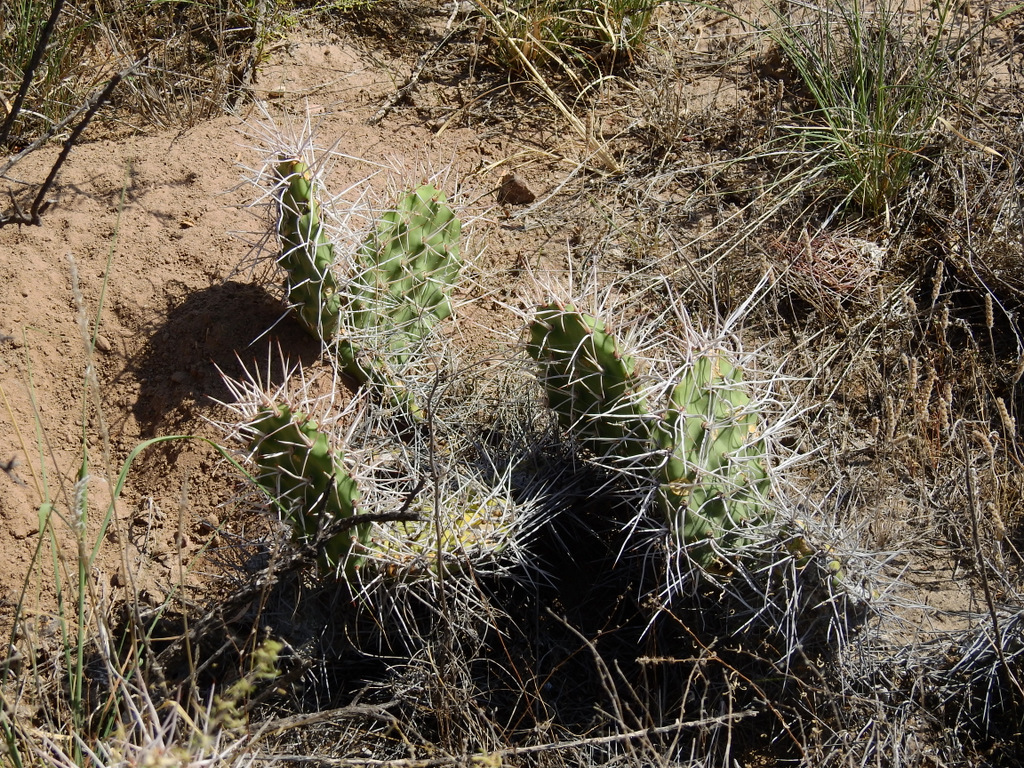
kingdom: Plantae
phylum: Tracheophyta
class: Magnoliopsida
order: Caryophyllales
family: Cactaceae
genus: Opuntia
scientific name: Opuntia sulphurea
